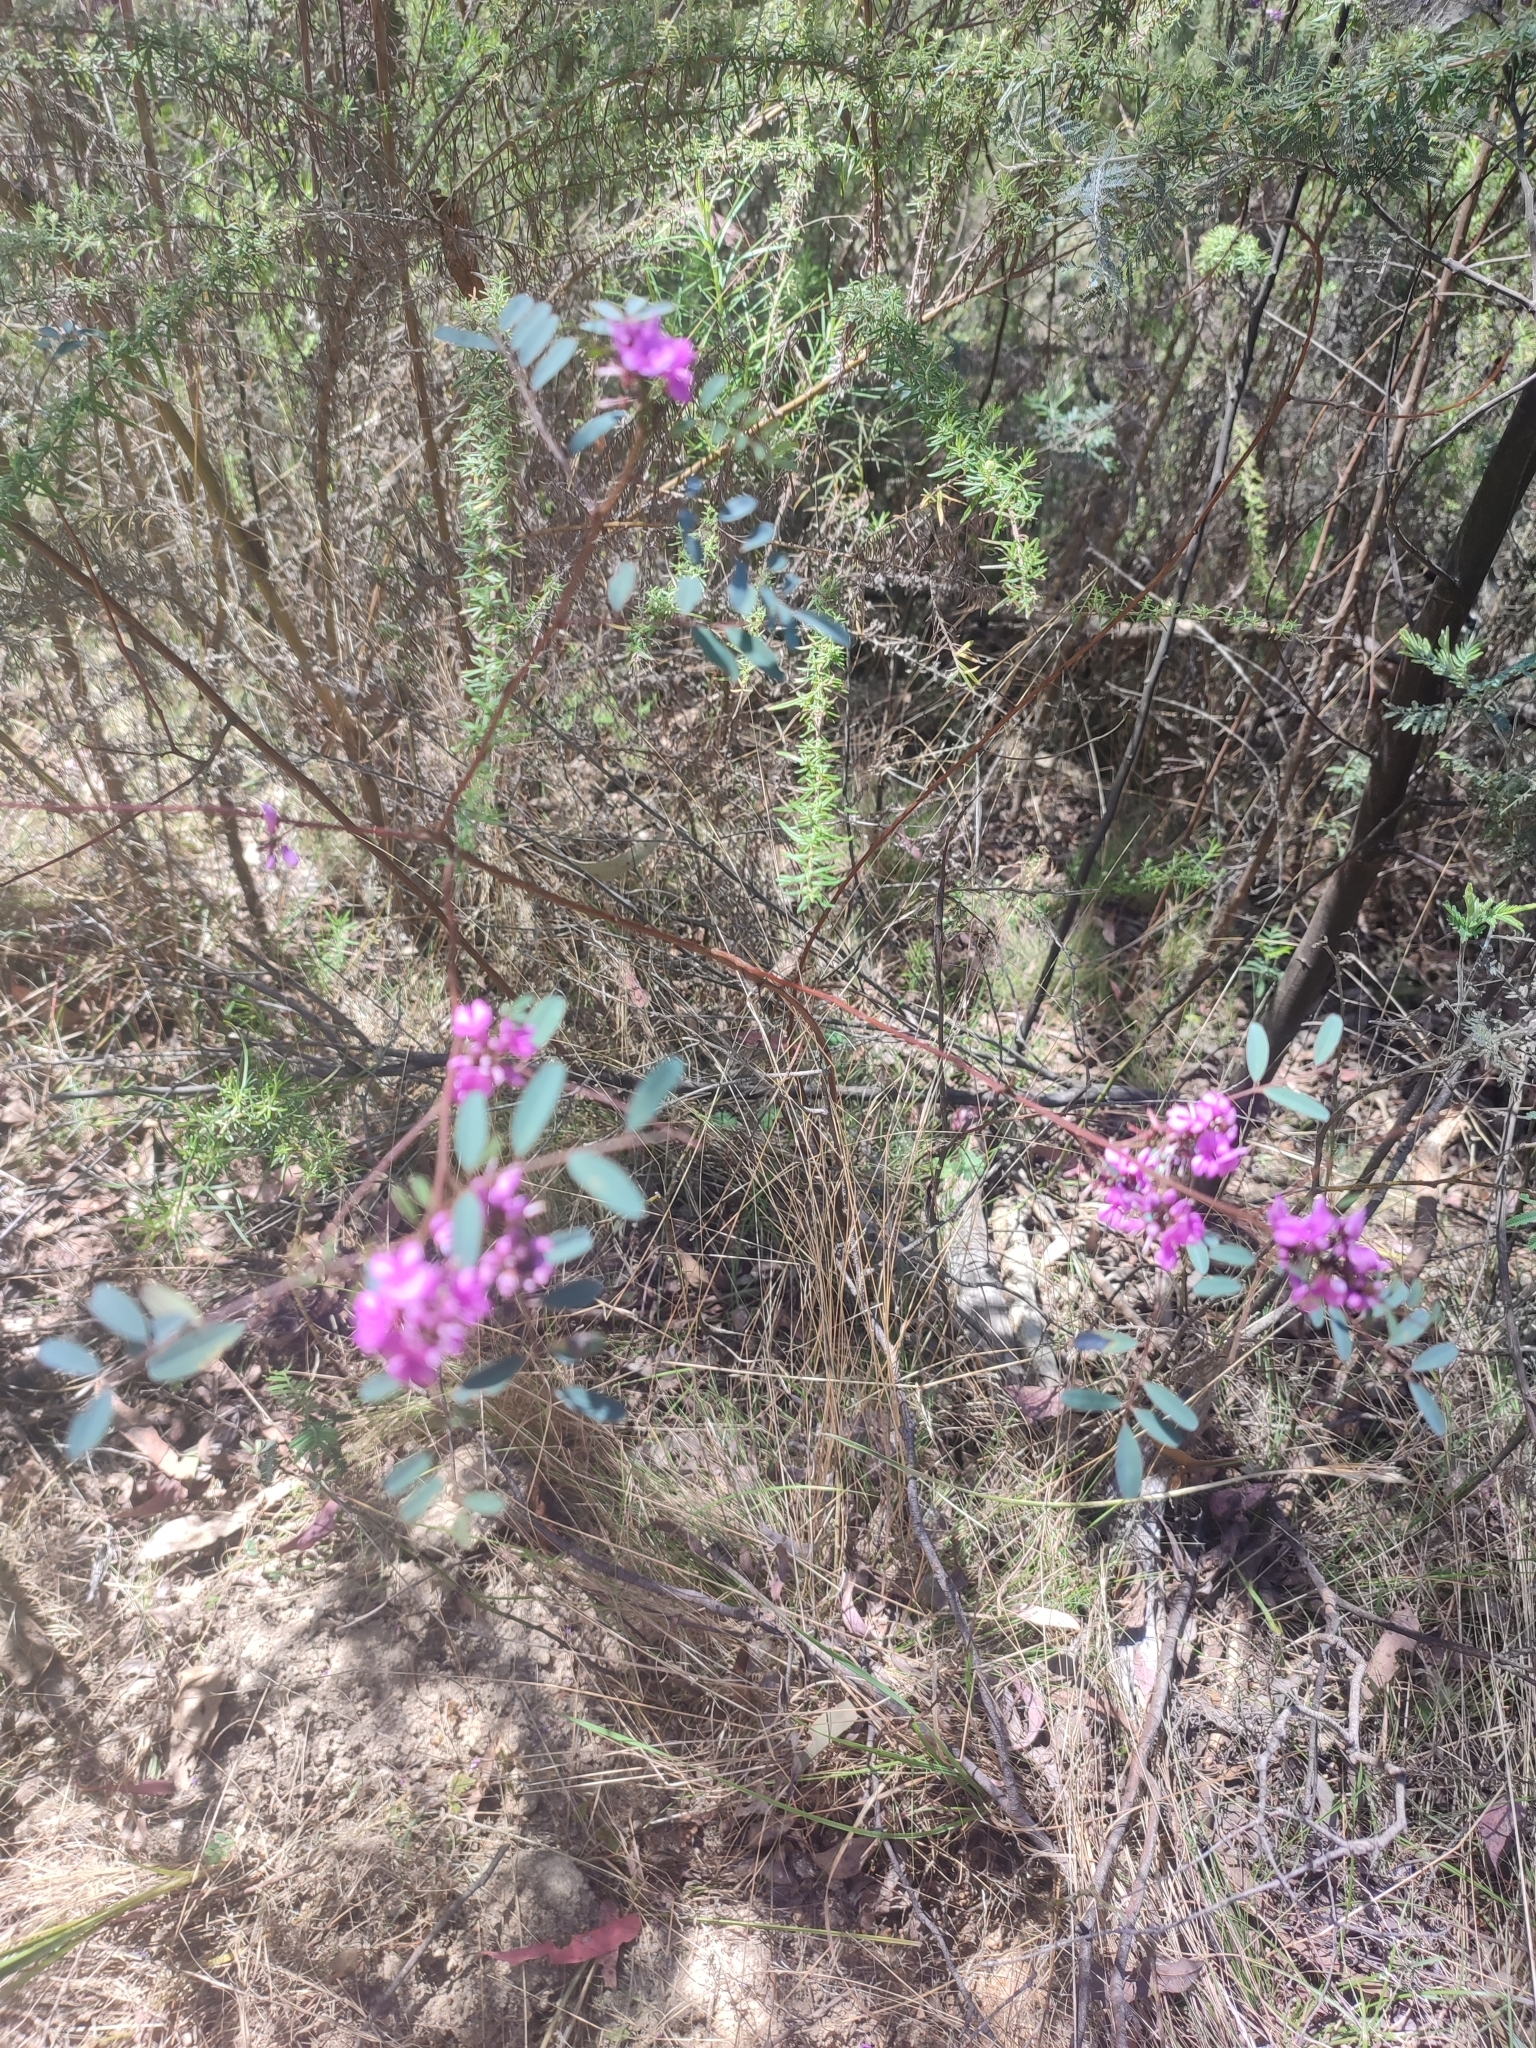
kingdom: Plantae
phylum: Tracheophyta
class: Magnoliopsida
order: Fabales
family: Fabaceae
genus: Indigofera
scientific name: Indigofera australis
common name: Australian indigo
